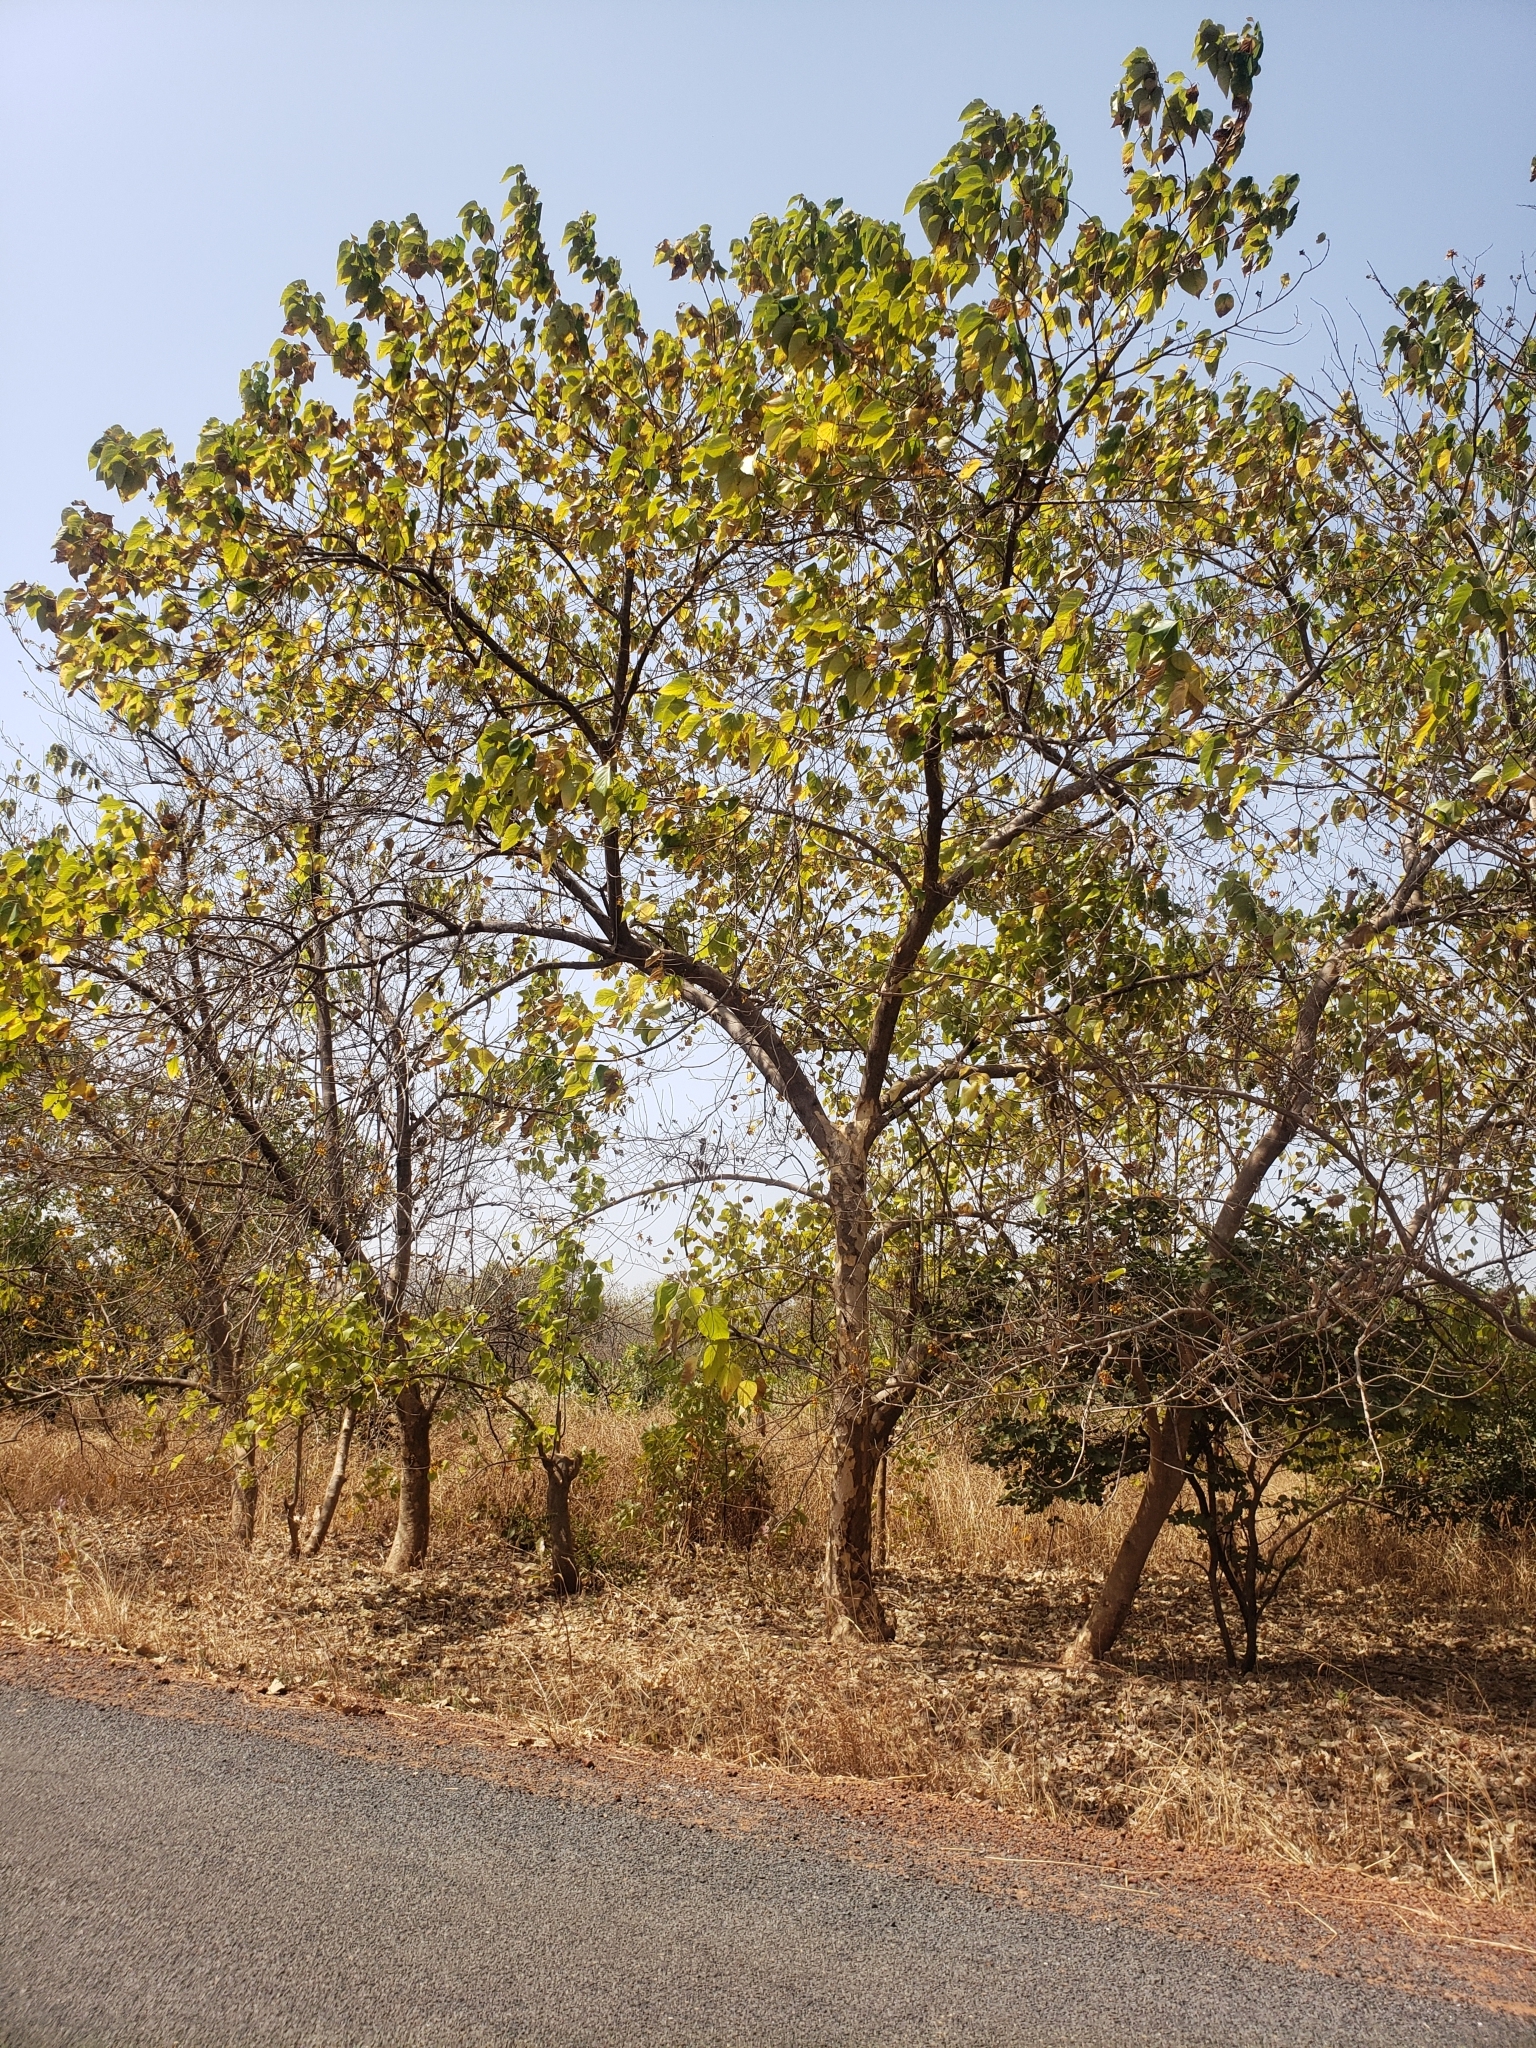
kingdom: Plantae
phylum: Tracheophyta
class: Magnoliopsida
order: Lamiales
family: Lamiaceae
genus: Gmelina
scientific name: Gmelina arborea
